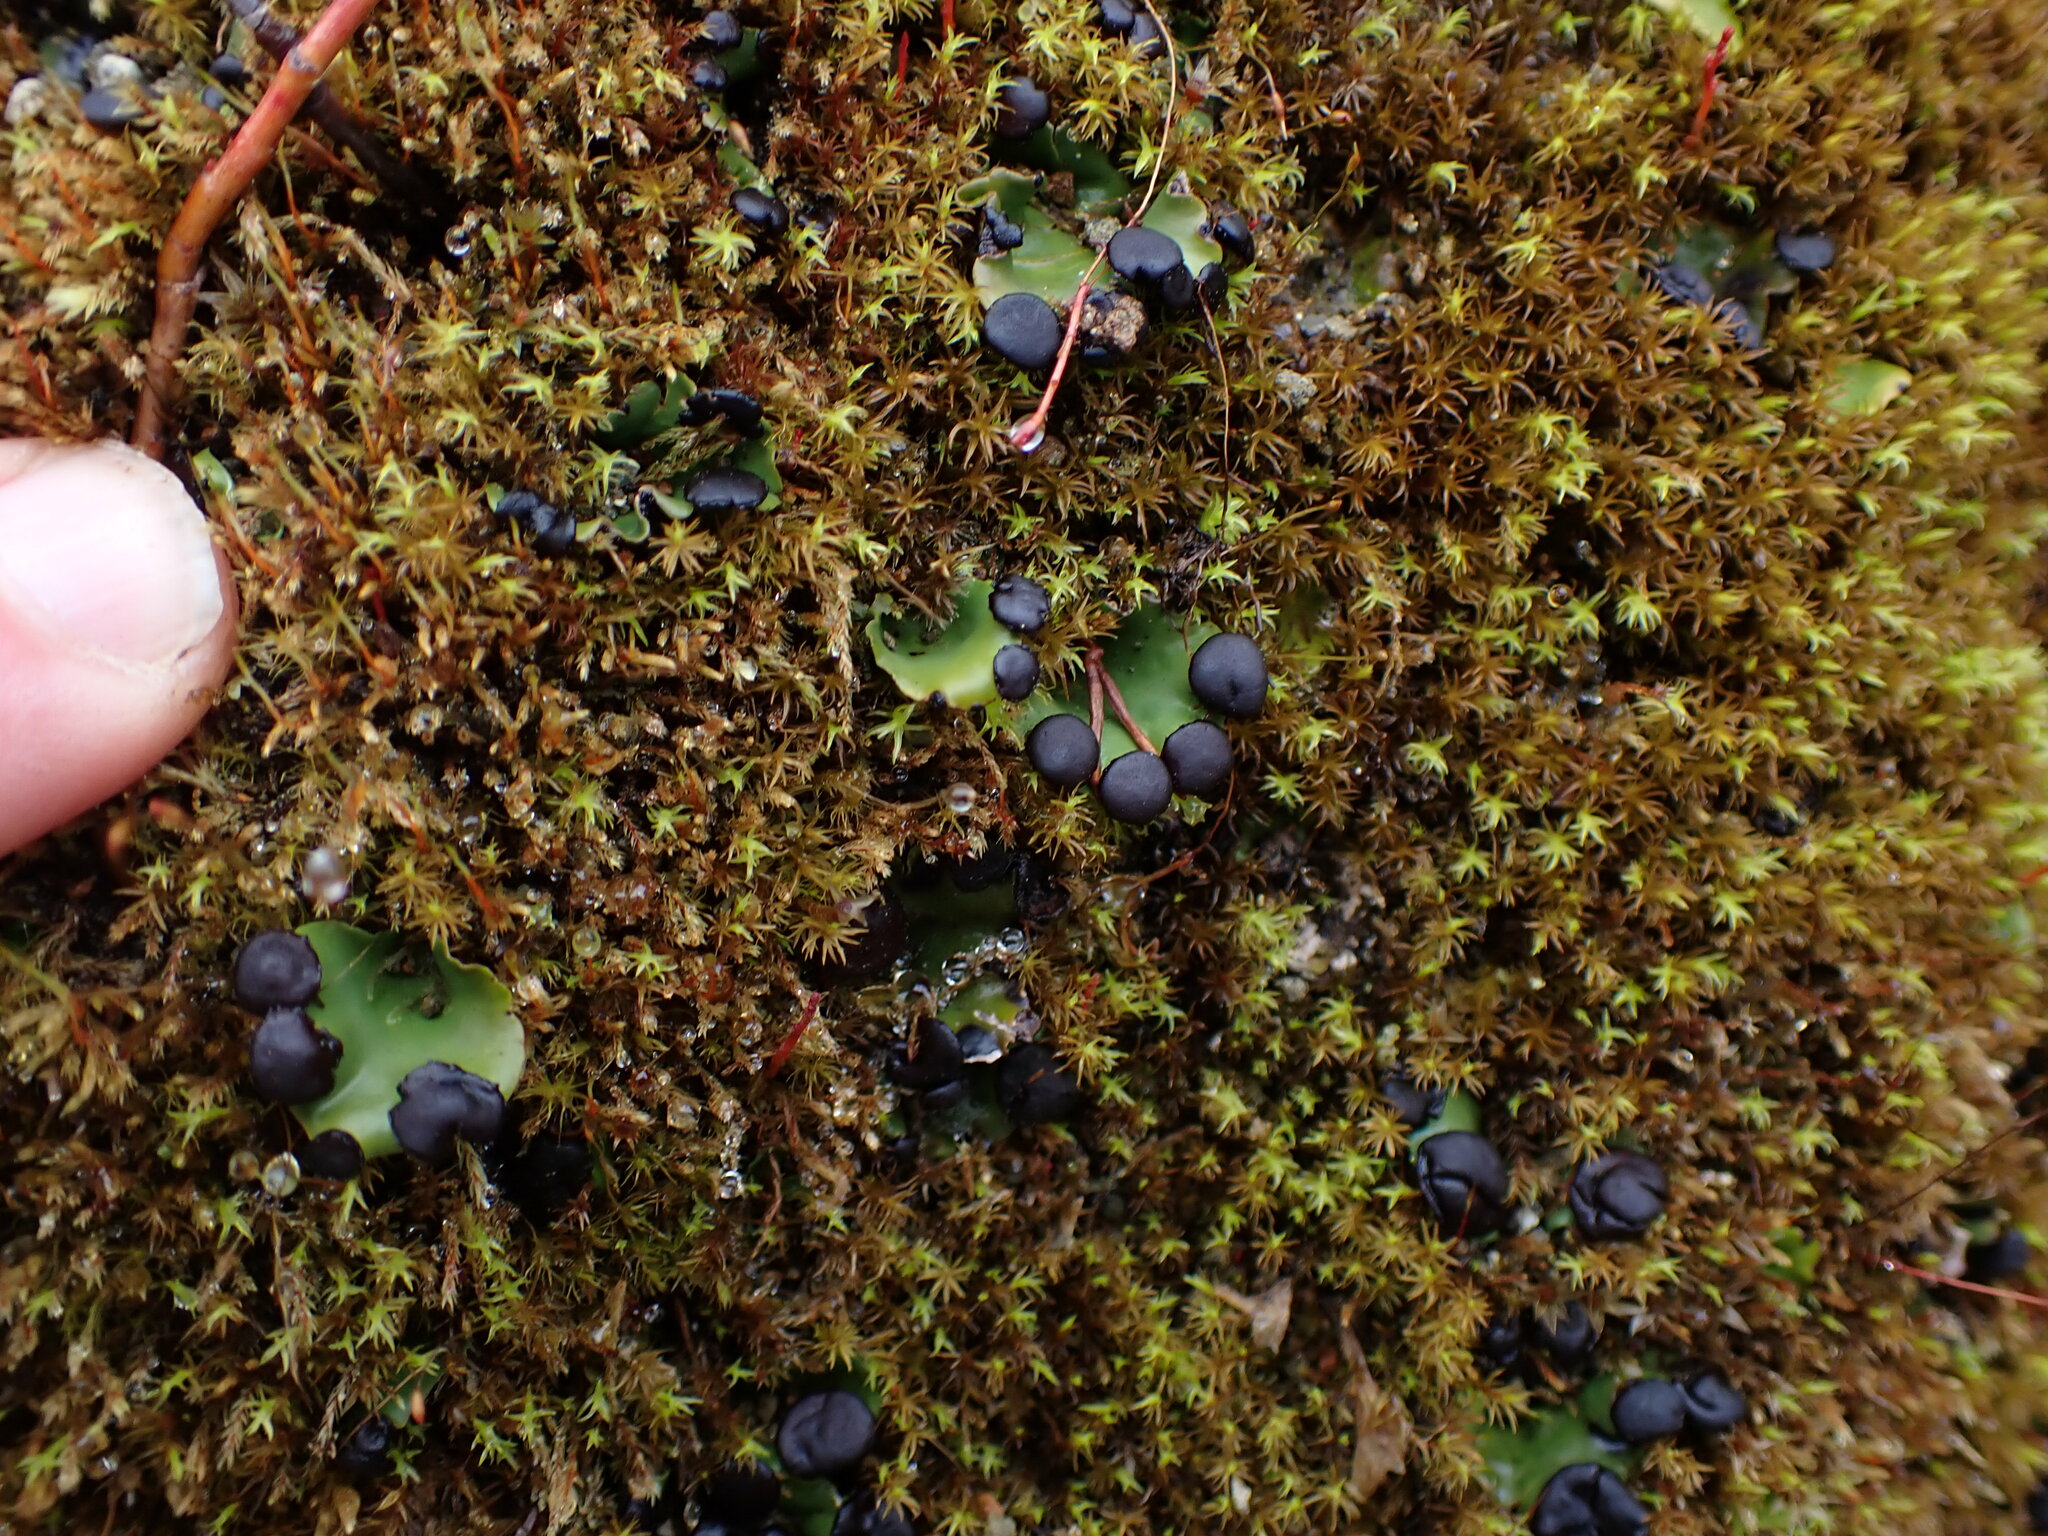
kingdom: Fungi
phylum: Ascomycota
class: Lecanoromycetes
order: Peltigerales
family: Peltigeraceae
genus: Peltigera
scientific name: Peltigera venosa
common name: Pixie gowns lichen
